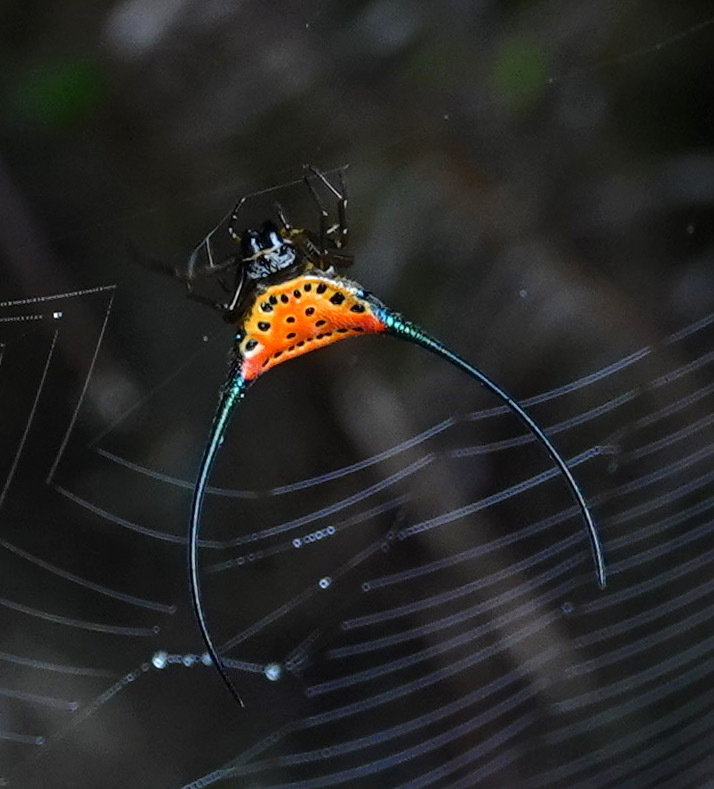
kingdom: Animalia
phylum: Arthropoda
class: Arachnida
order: Araneae
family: Araneidae
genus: Macracantha
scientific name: Macracantha arcuata
